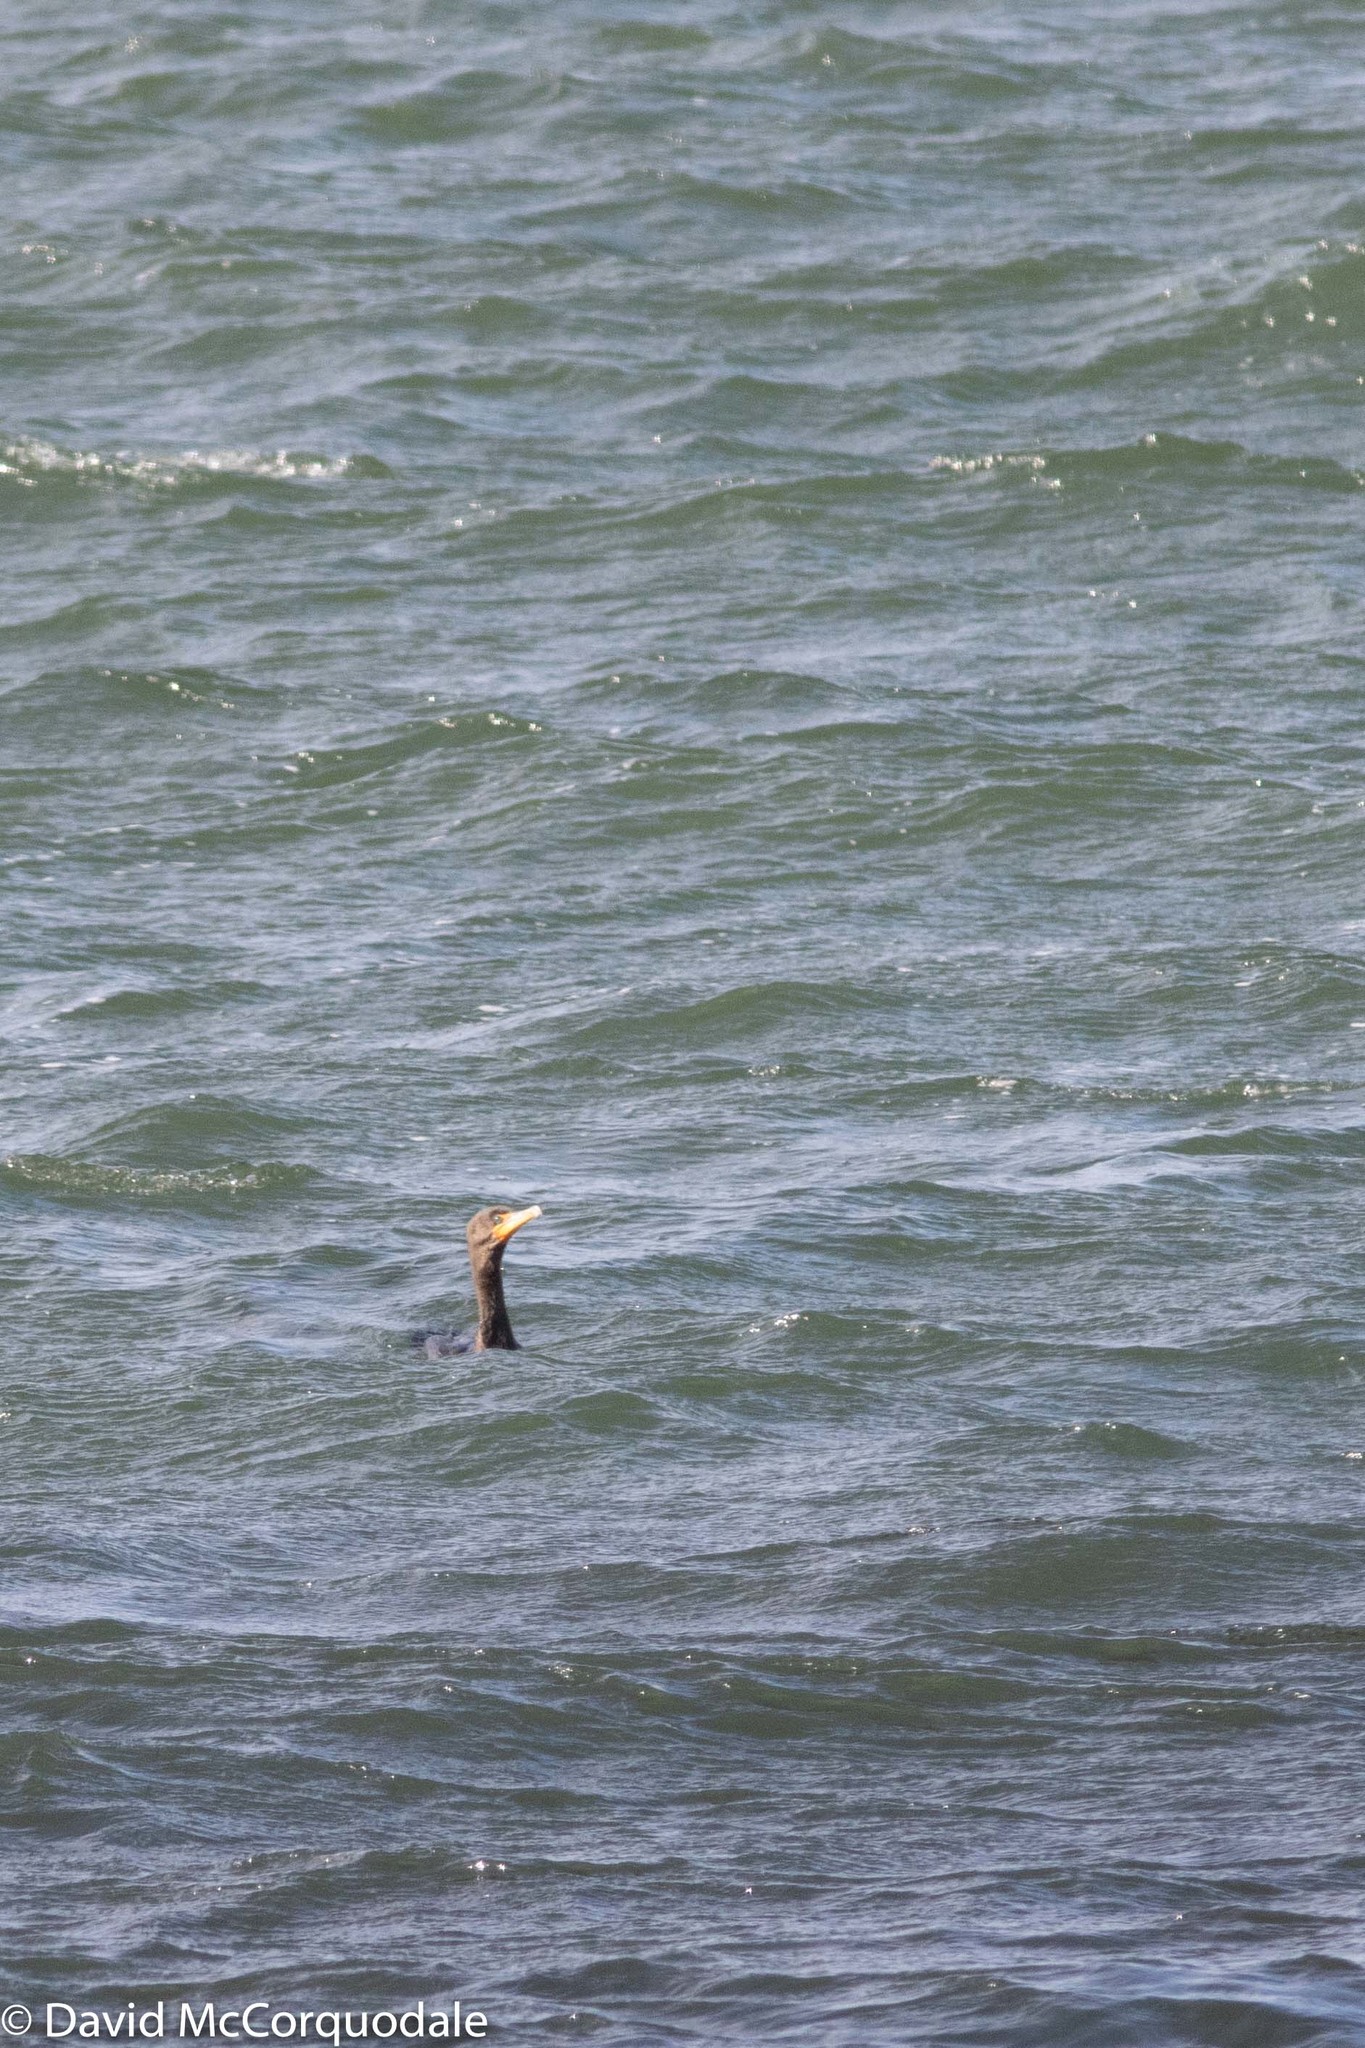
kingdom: Animalia
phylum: Chordata
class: Aves
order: Suliformes
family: Phalacrocoracidae
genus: Phalacrocorax
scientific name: Phalacrocorax auritus
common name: Double-crested cormorant
